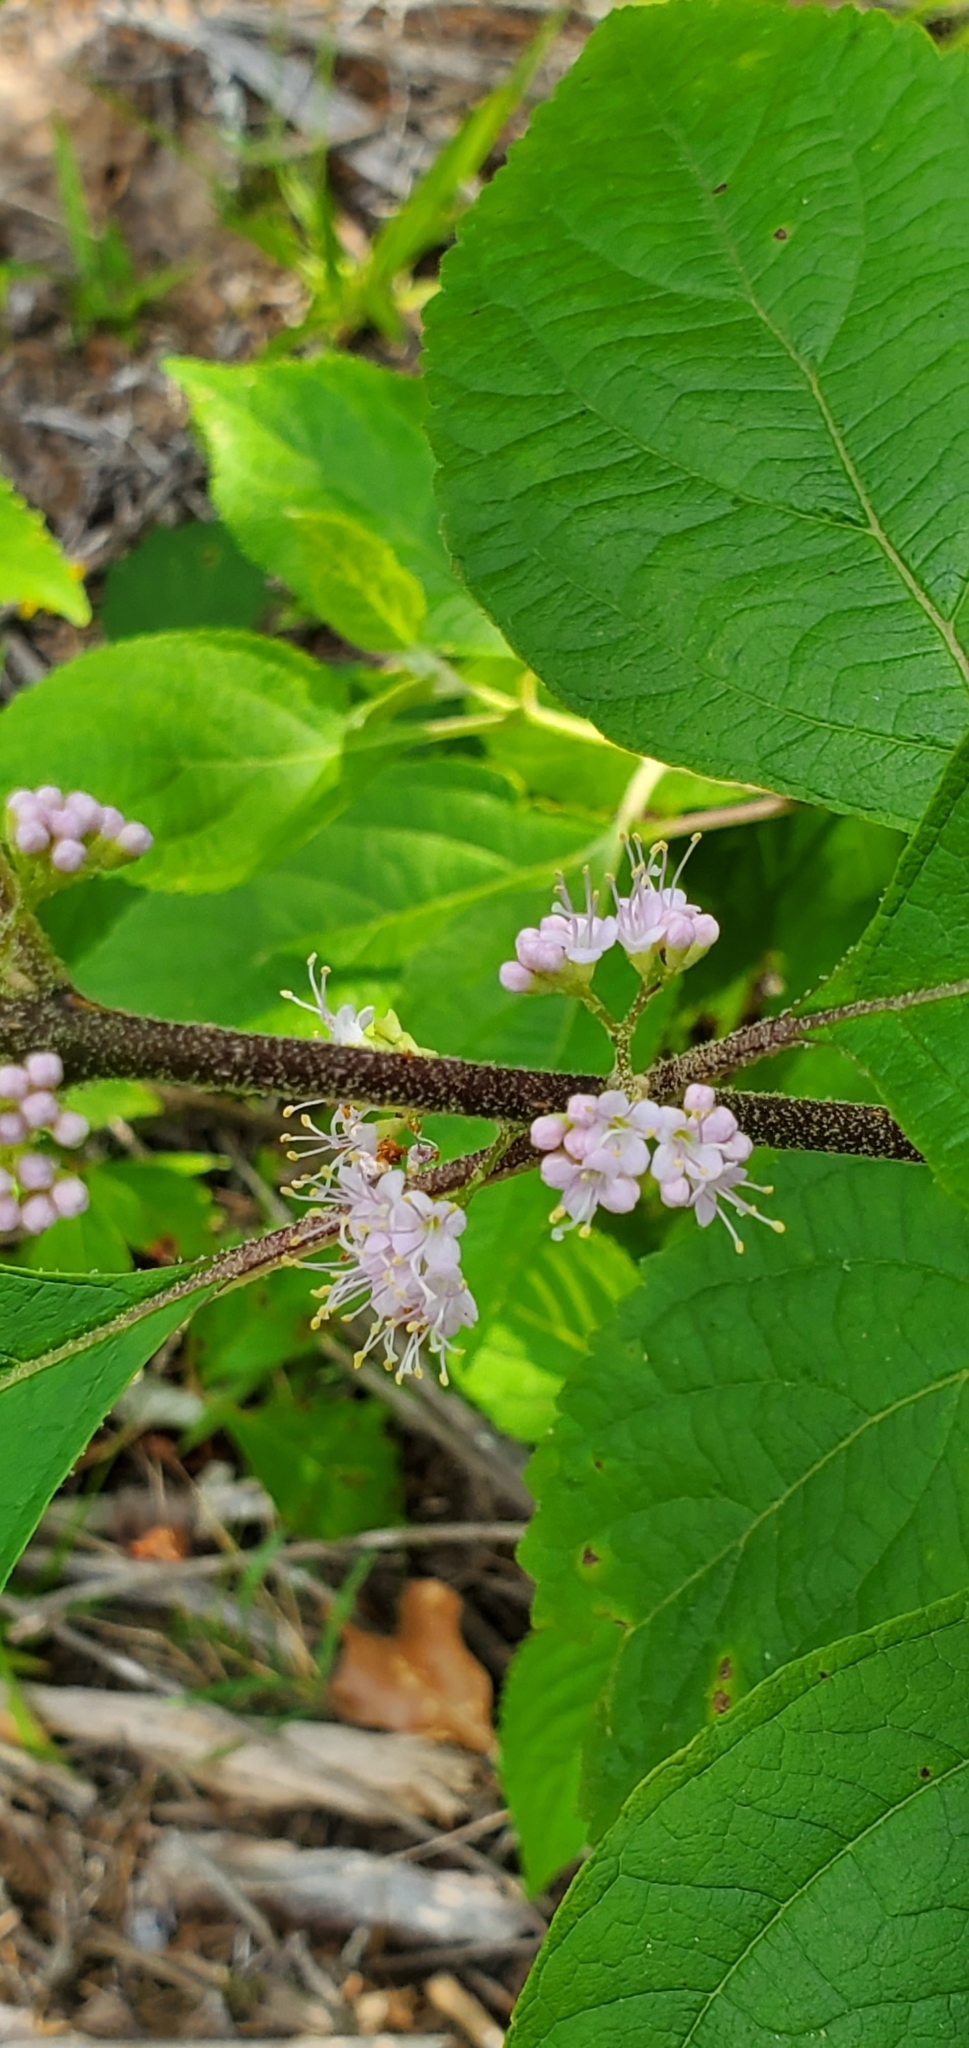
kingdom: Plantae
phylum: Tracheophyta
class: Magnoliopsida
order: Lamiales
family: Lamiaceae
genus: Callicarpa
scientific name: Callicarpa americana
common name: American beautyberry
